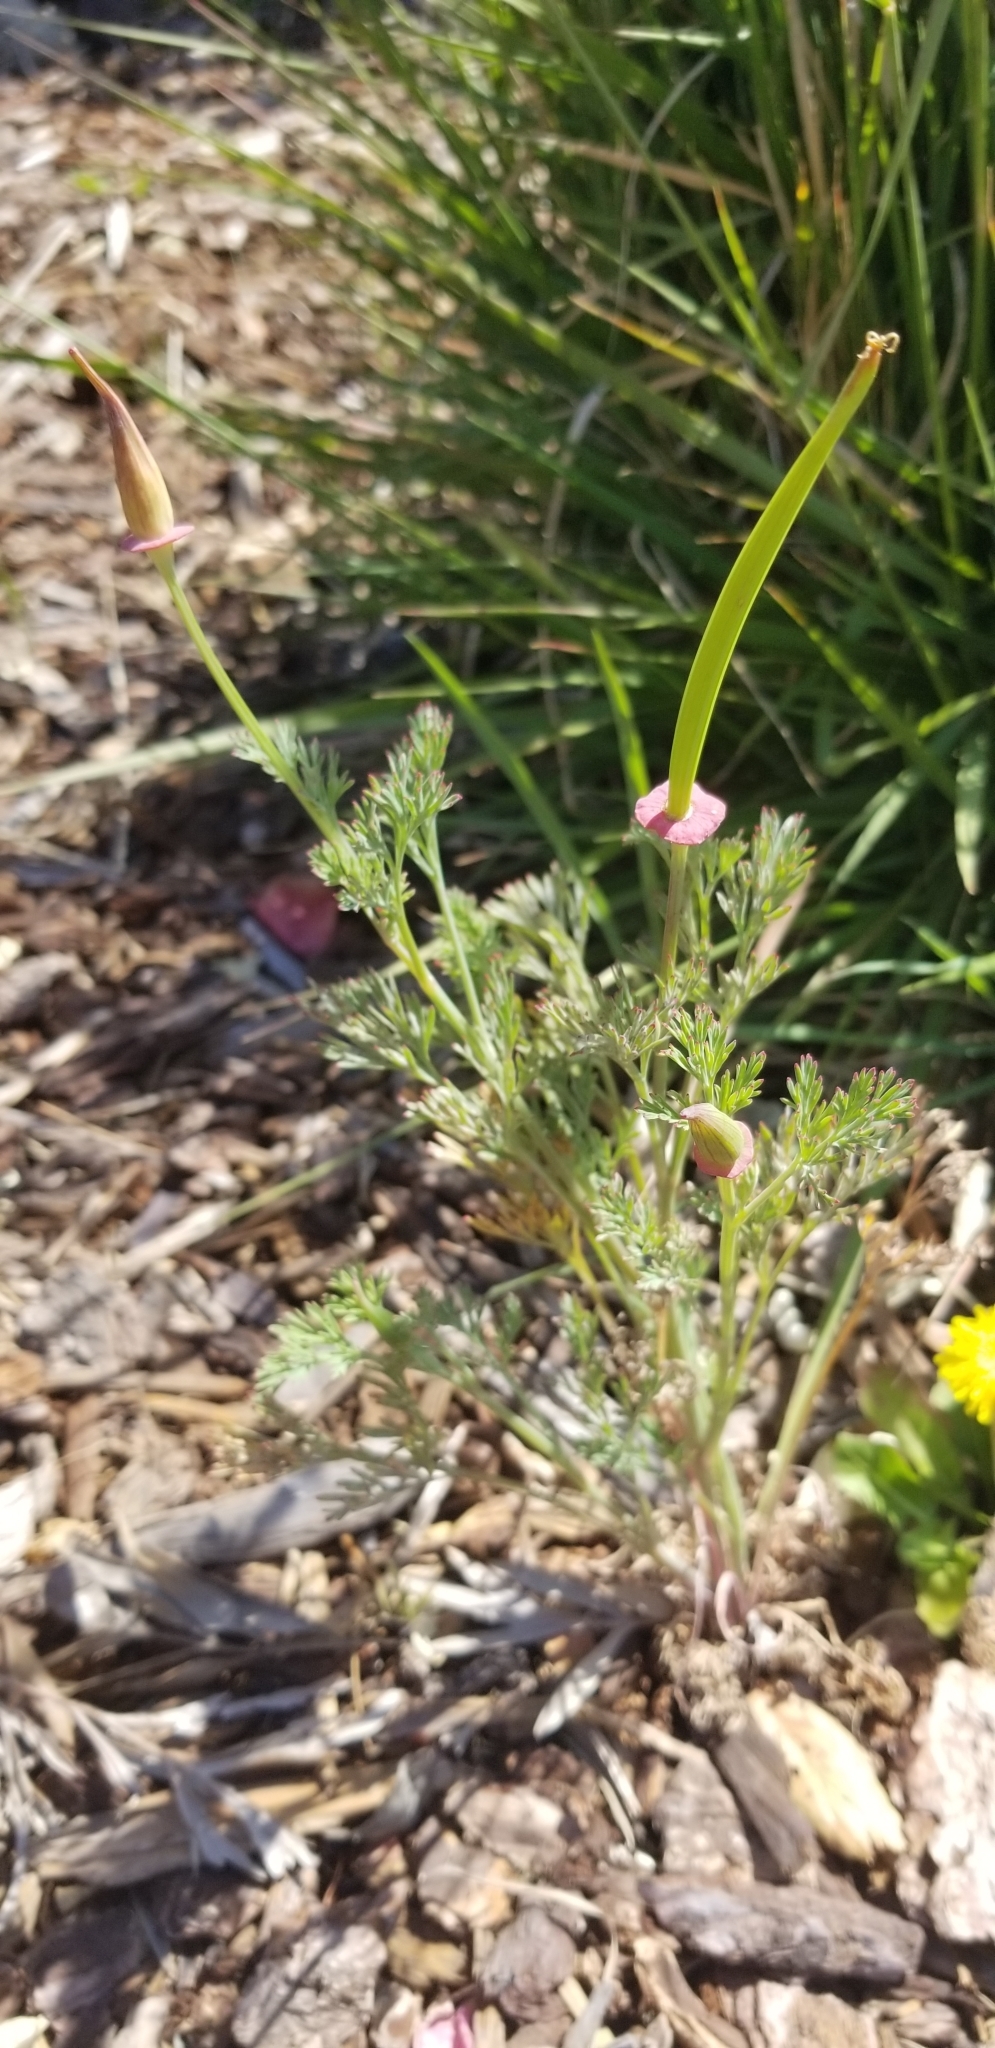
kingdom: Plantae
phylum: Tracheophyta
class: Magnoliopsida
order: Ranunculales
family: Papaveraceae
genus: Eschscholzia
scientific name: Eschscholzia californica
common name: California poppy
